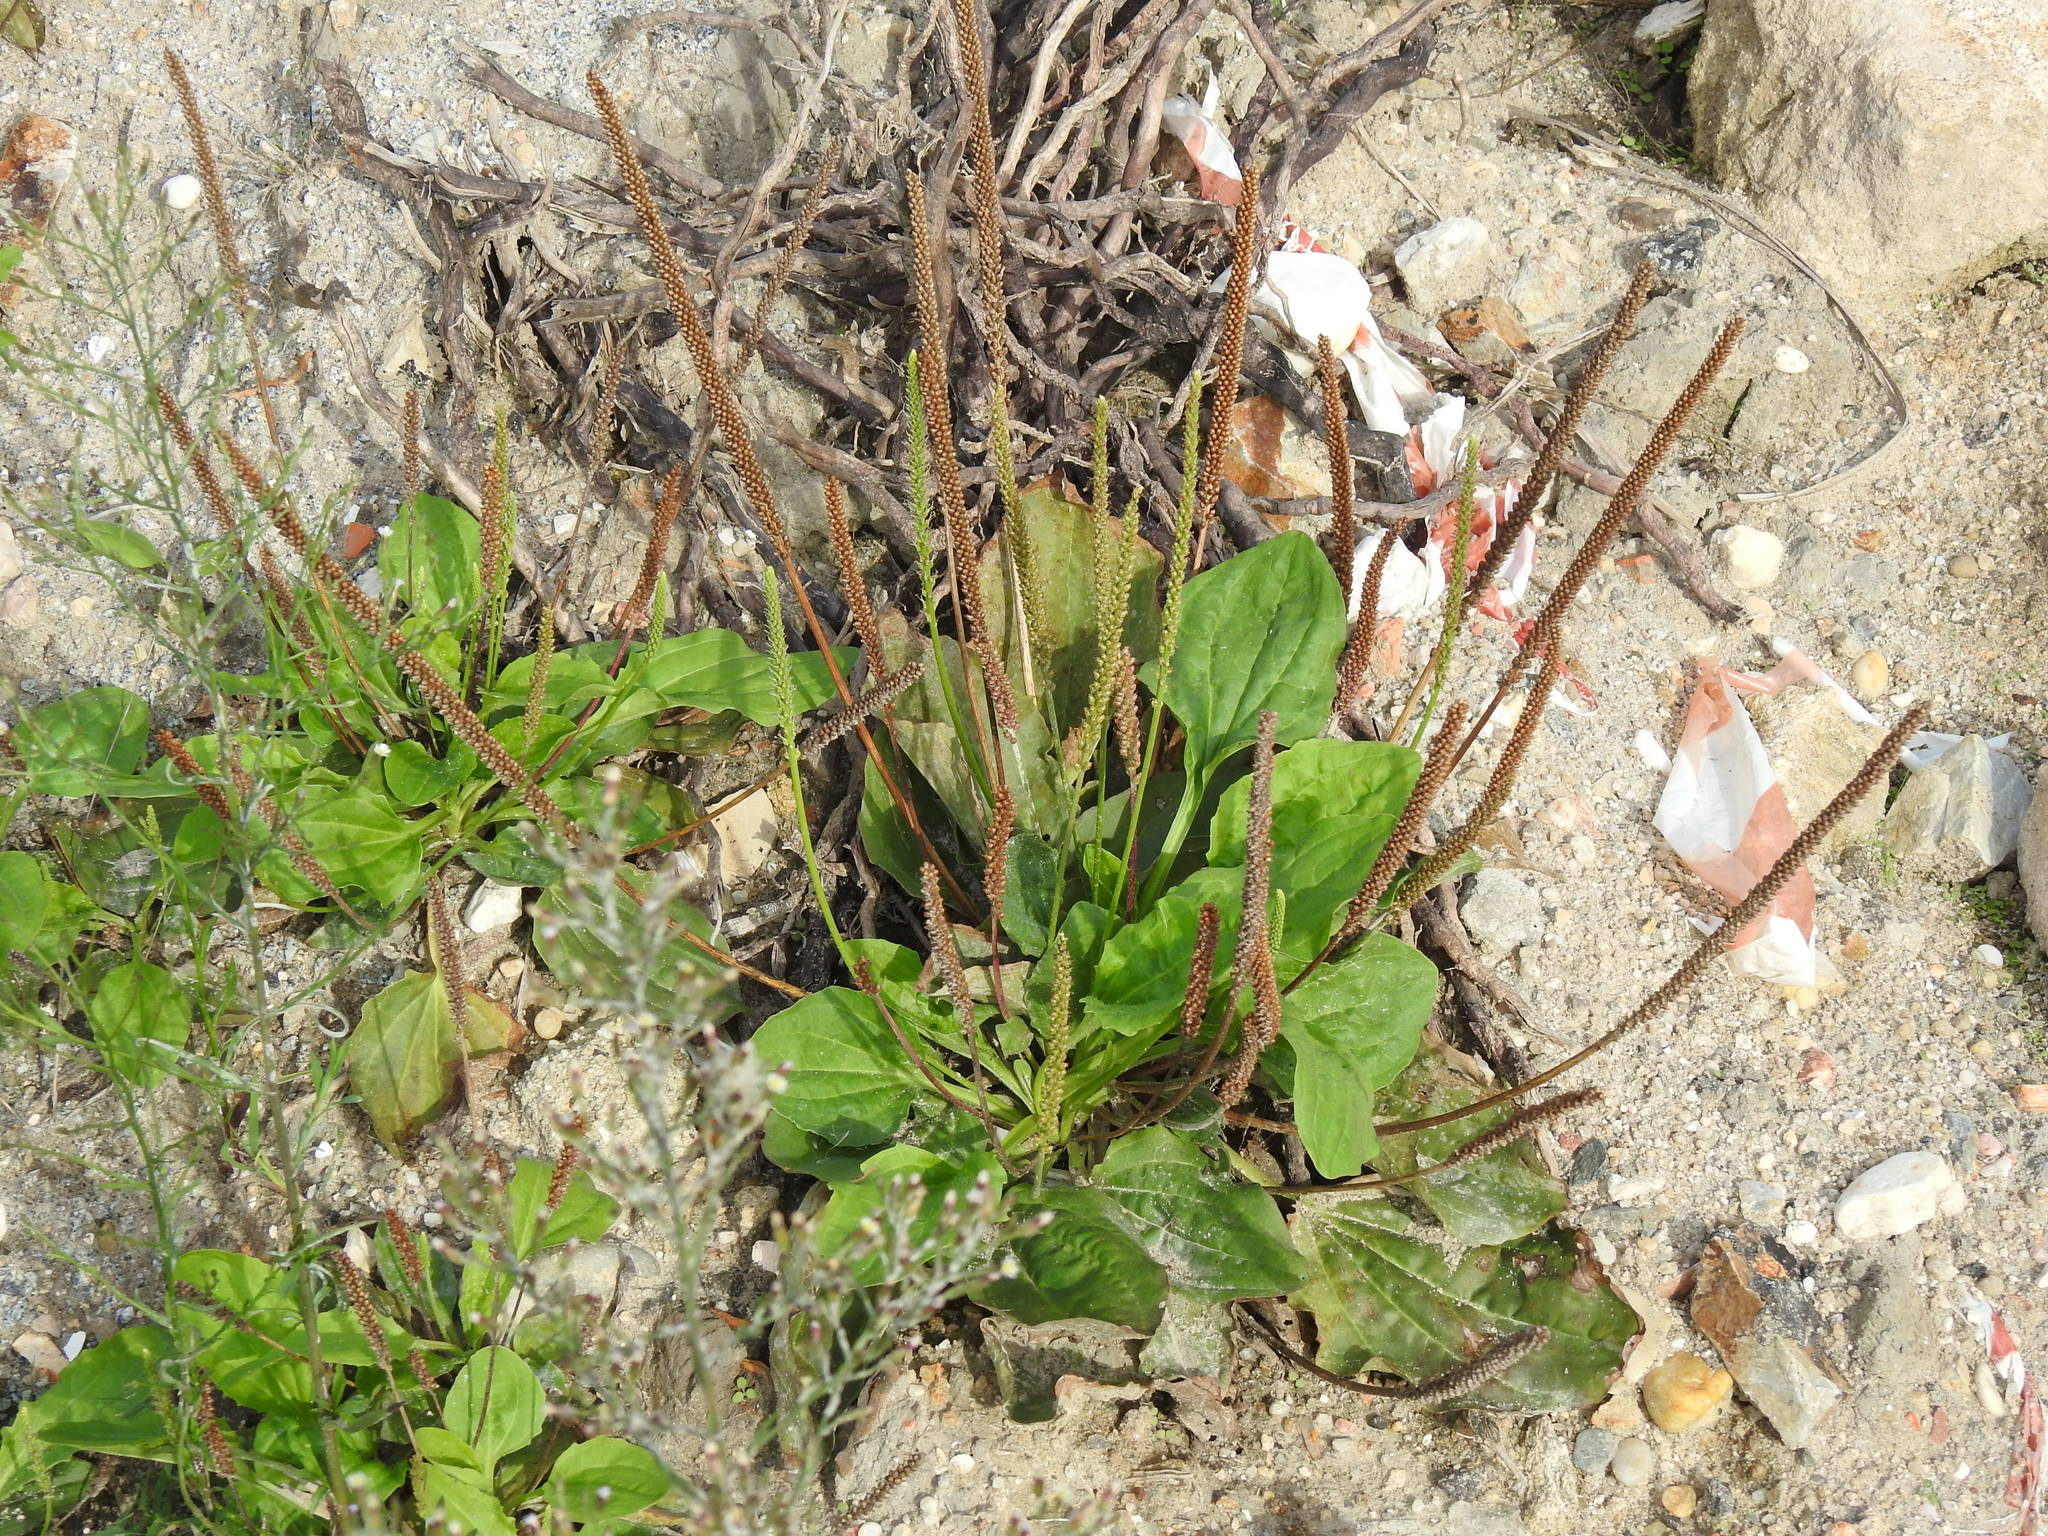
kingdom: Plantae
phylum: Tracheophyta
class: Magnoliopsida
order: Lamiales
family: Plantaginaceae
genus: Plantago
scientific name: Plantago major
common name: Common plantain
